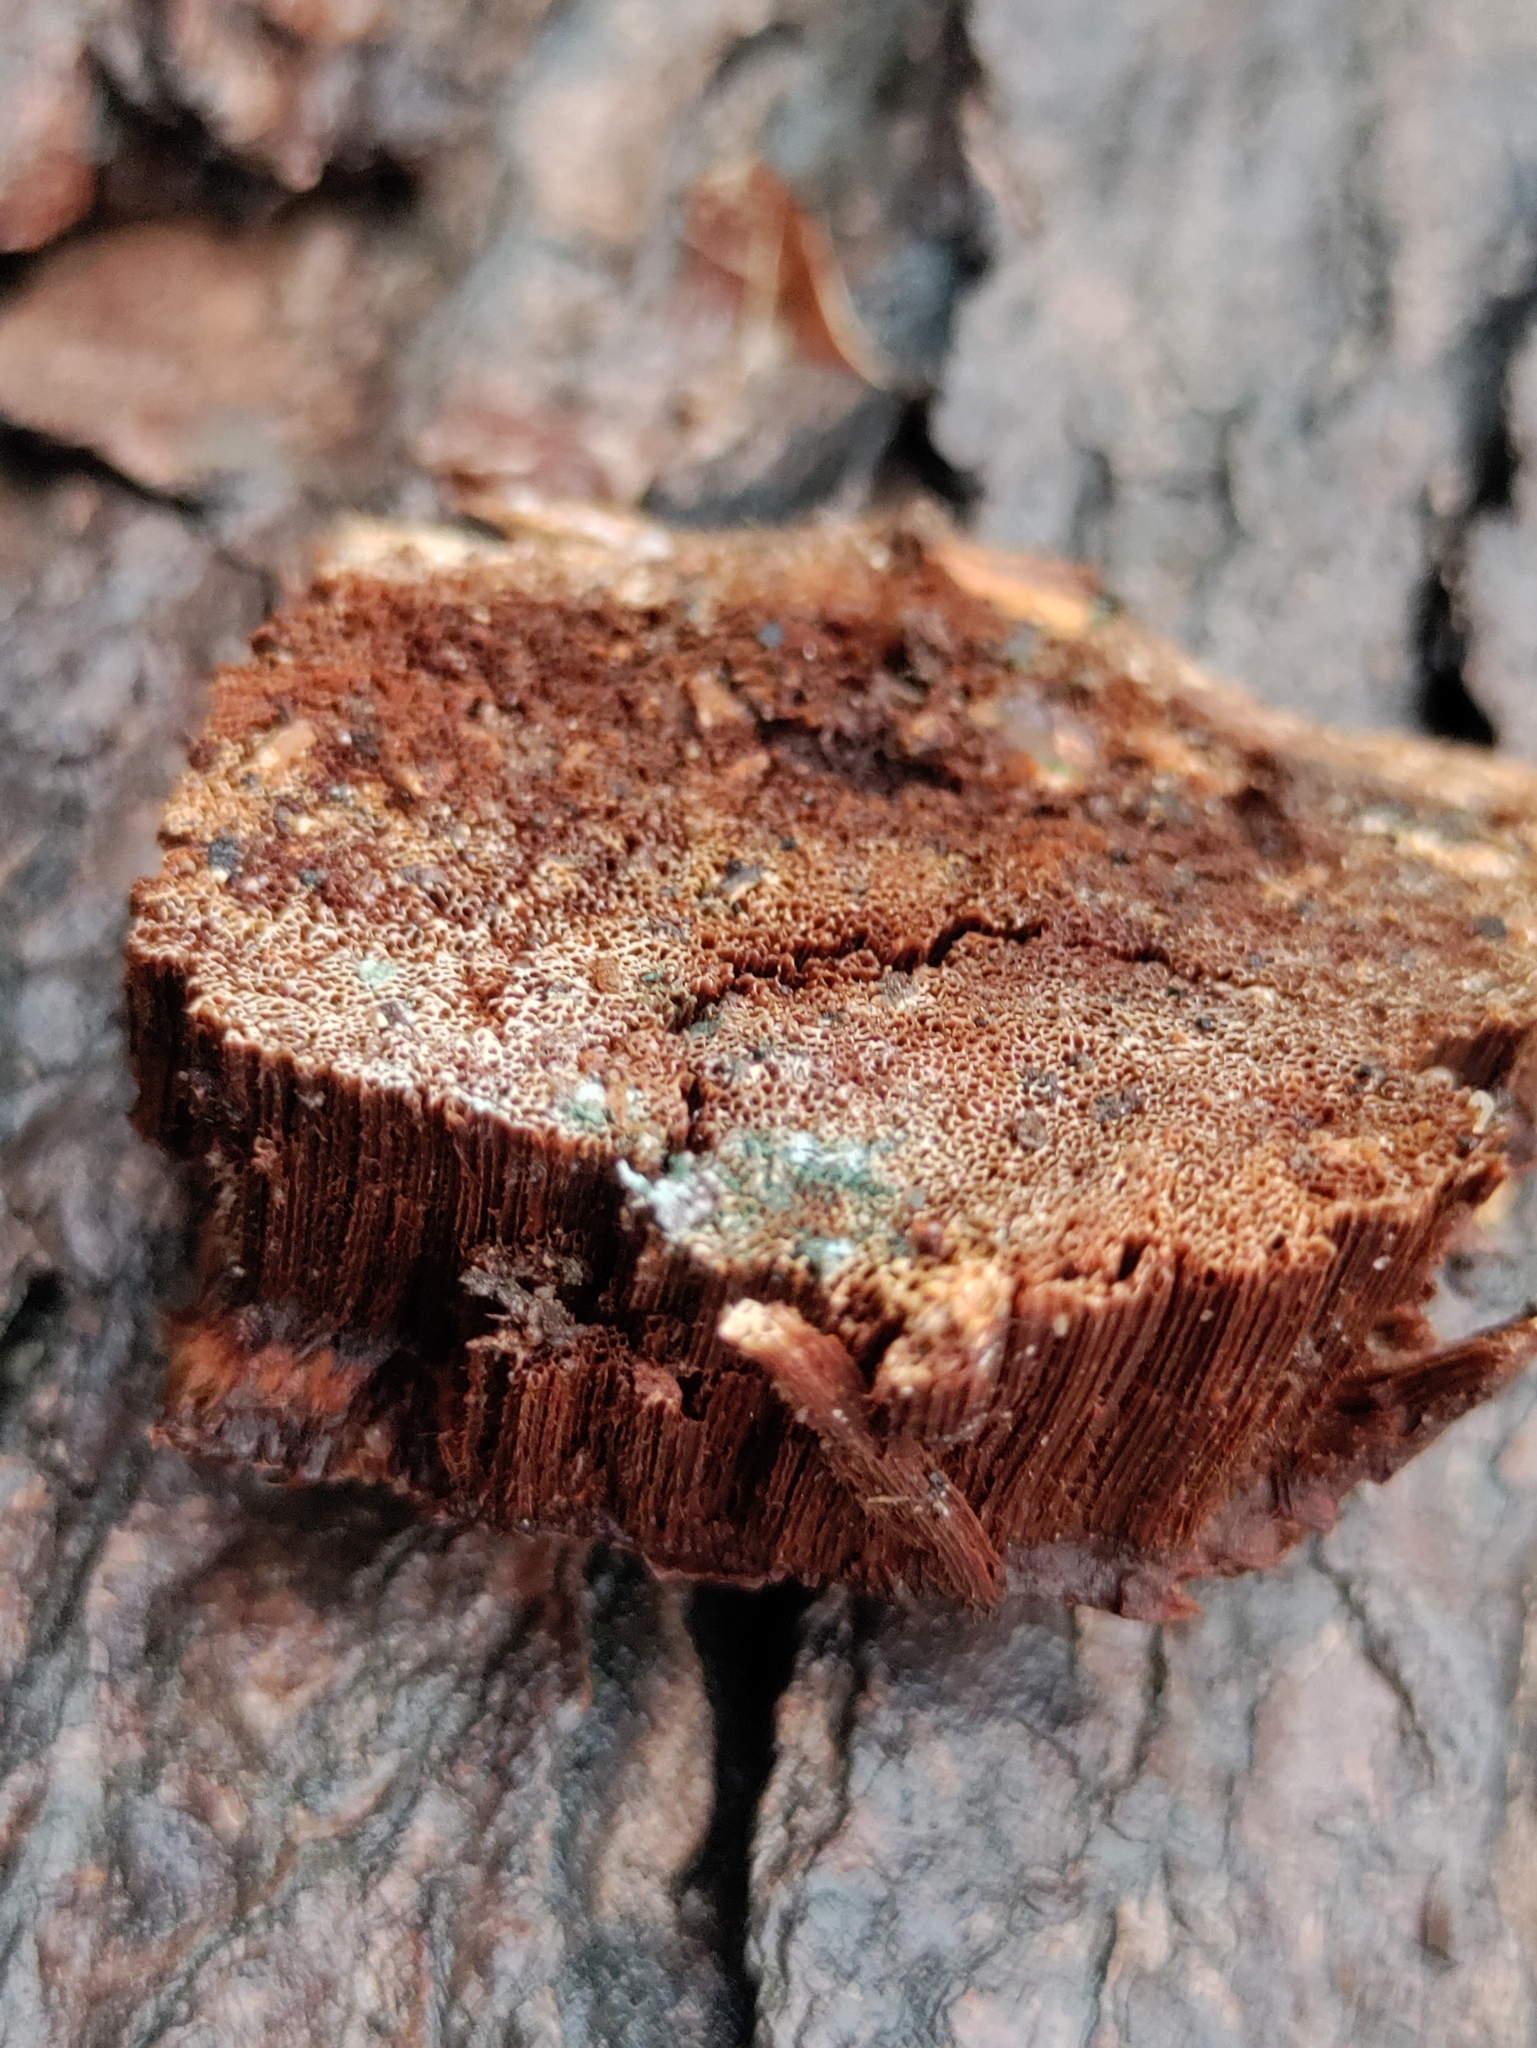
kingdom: Fungi
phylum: Basidiomycota
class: Agaricomycetes
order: Polyporales
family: Polyporaceae
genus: Ganoderma
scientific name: Ganoderma resinaceum
